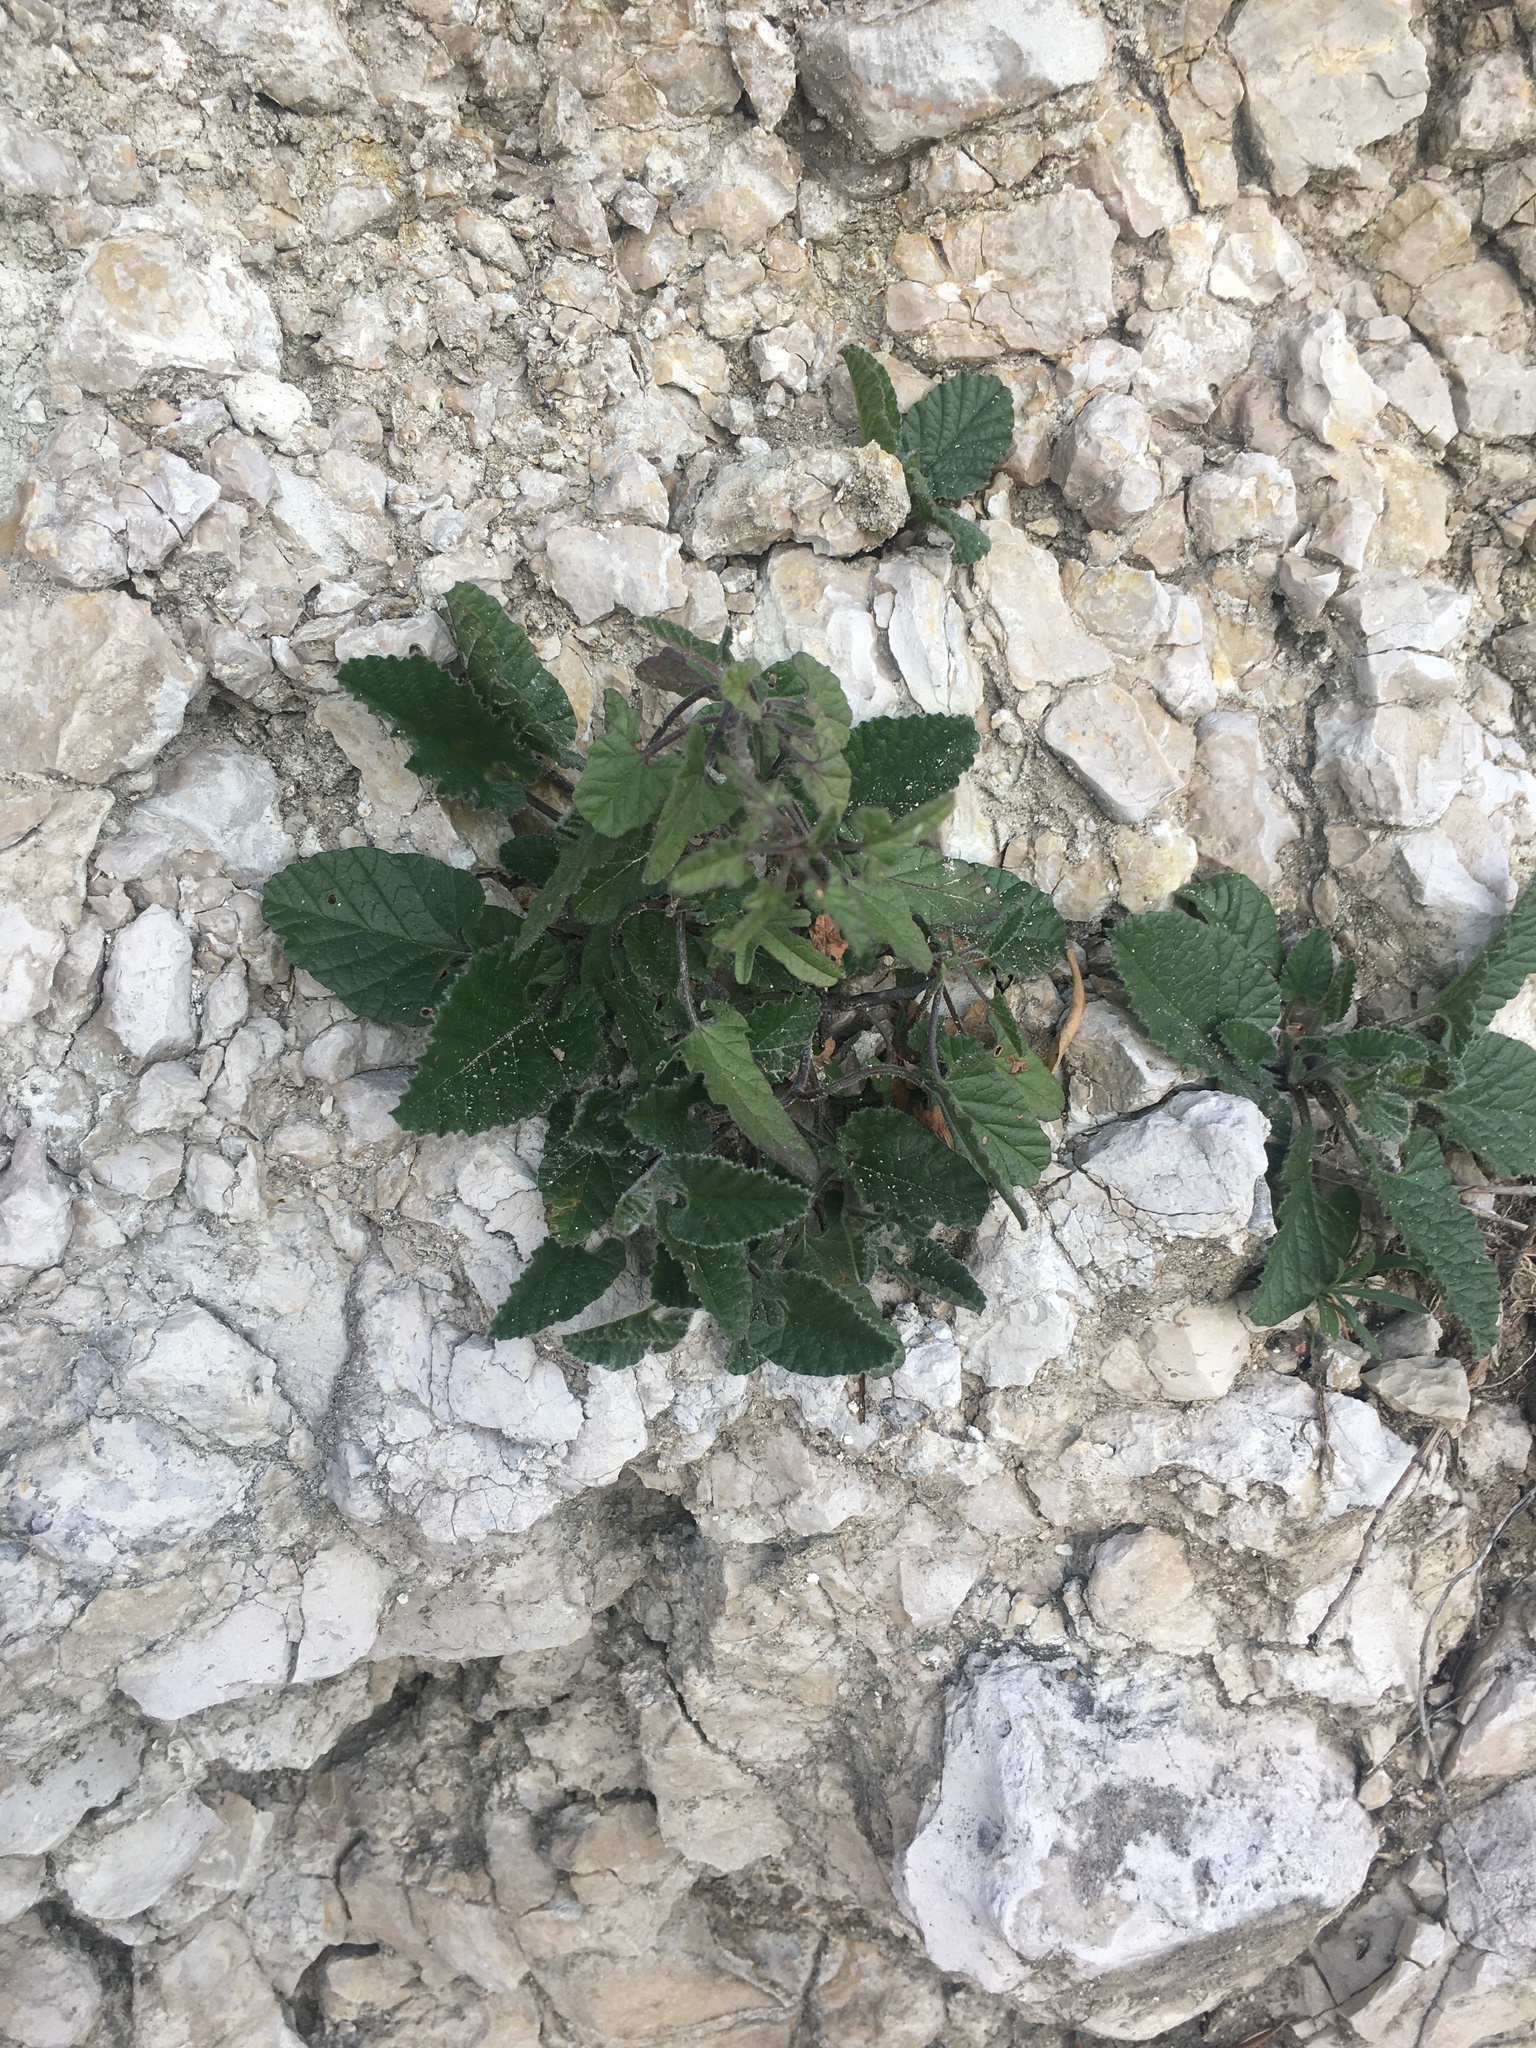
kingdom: Plantae
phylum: Tracheophyta
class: Magnoliopsida
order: Solanales
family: Convolvulaceae
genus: Convolvulus
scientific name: Convolvulus althaeoides
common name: Mallow bindweed
